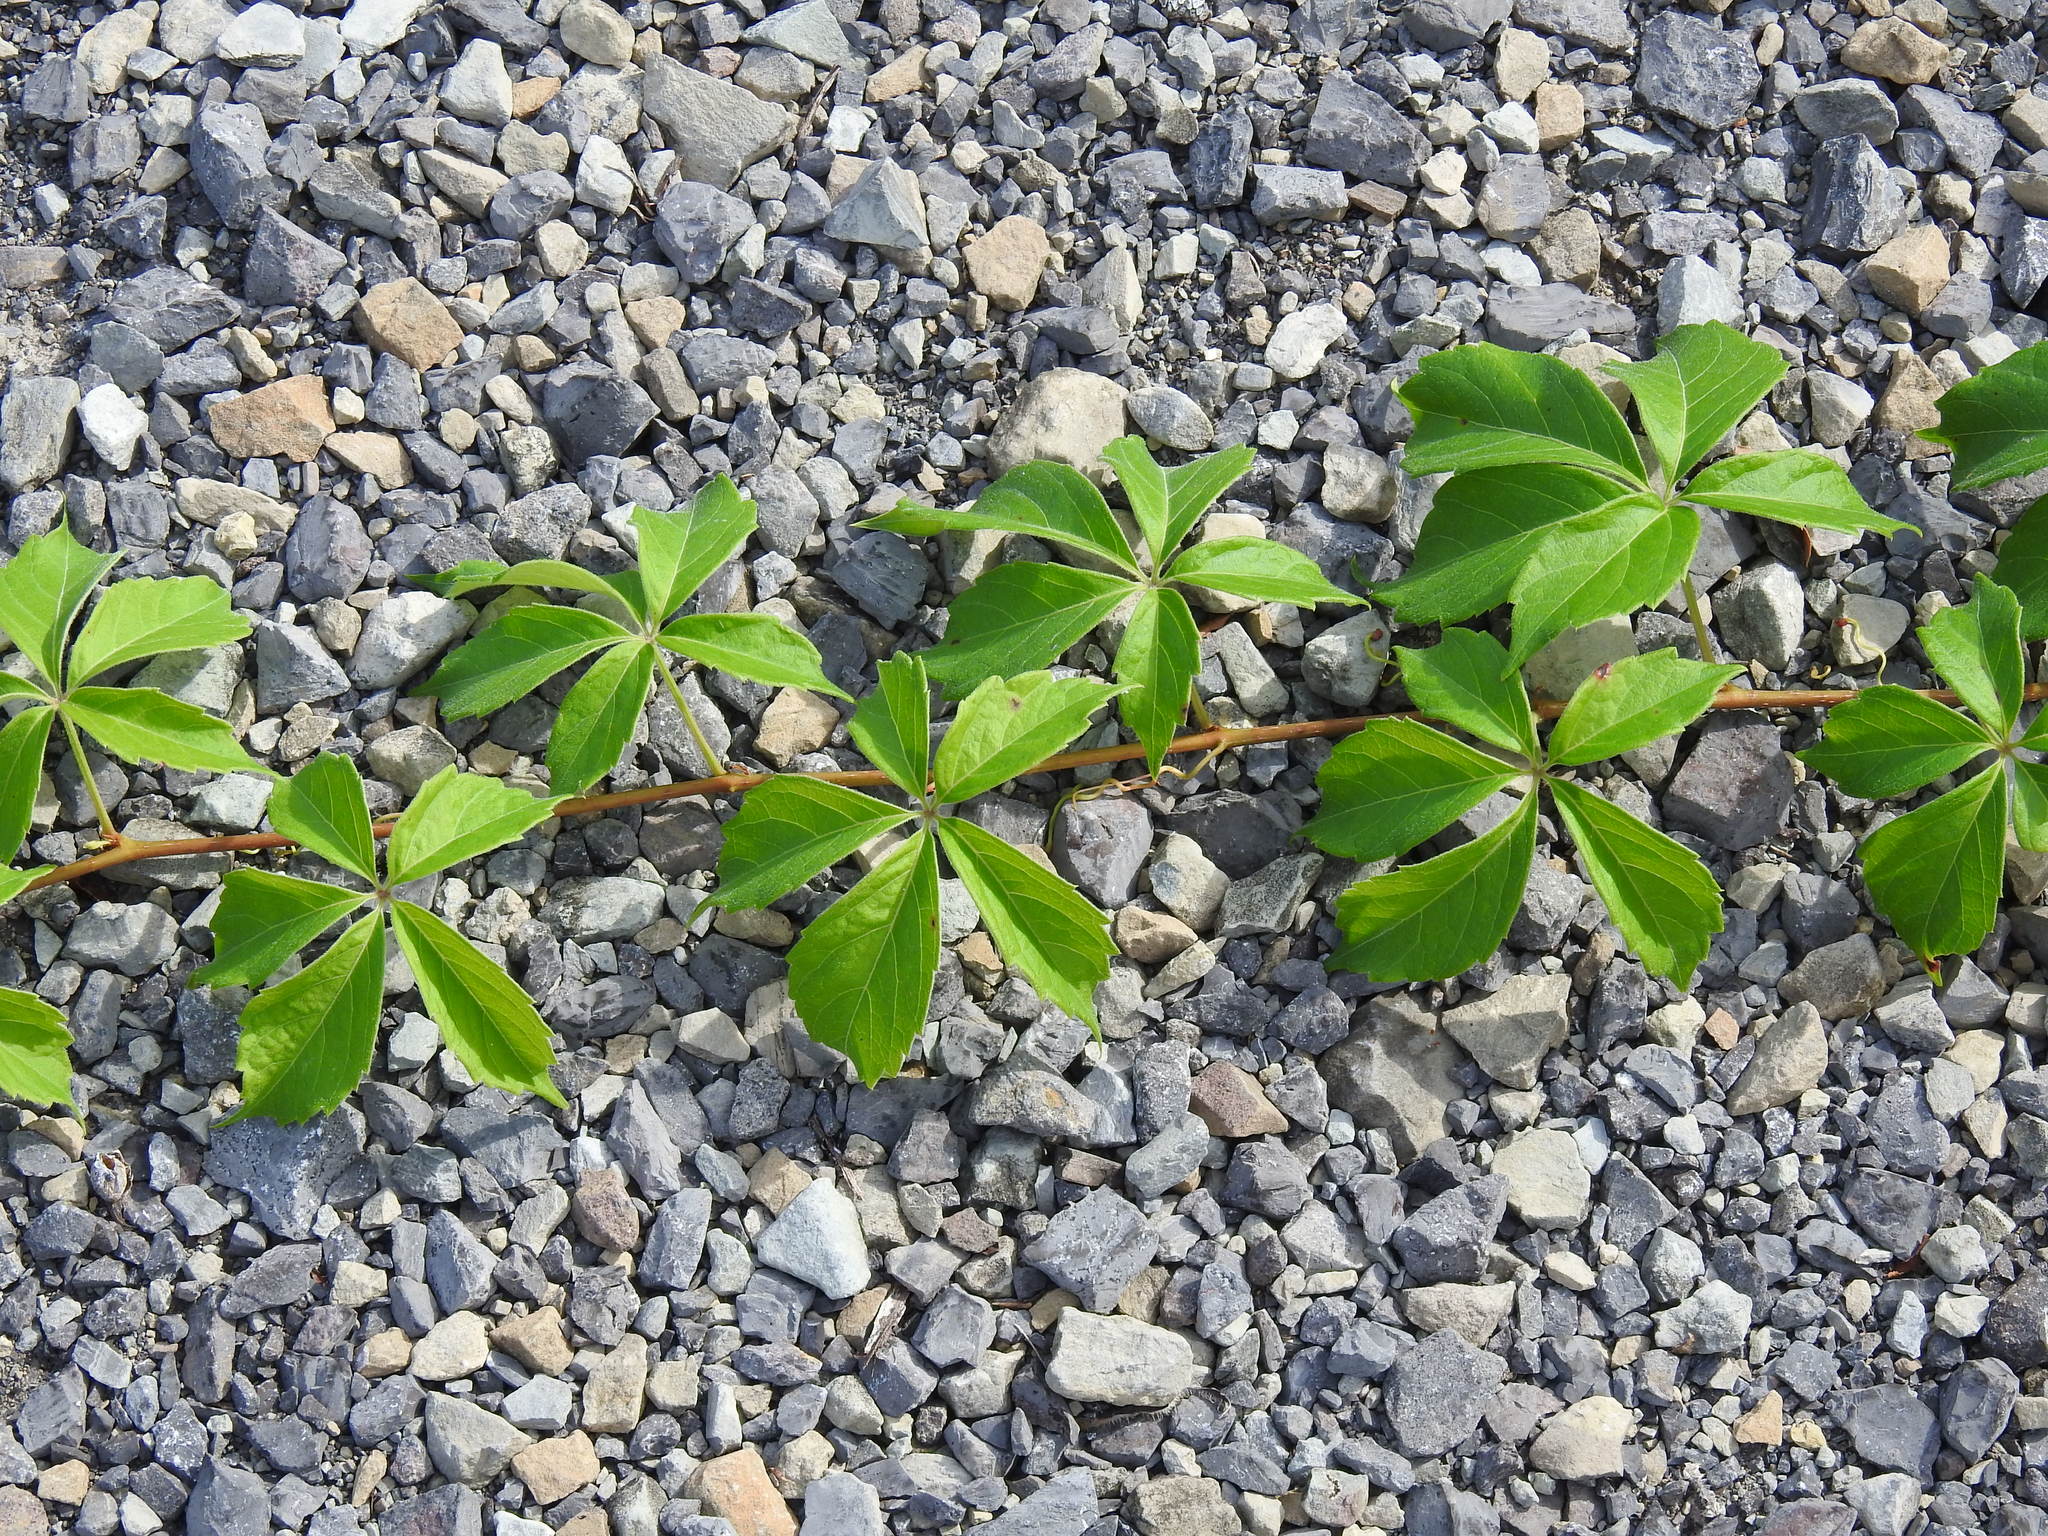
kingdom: Plantae
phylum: Tracheophyta
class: Magnoliopsida
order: Vitales
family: Vitaceae
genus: Parthenocissus
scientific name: Parthenocissus quinquefolia
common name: Virginia-creeper
